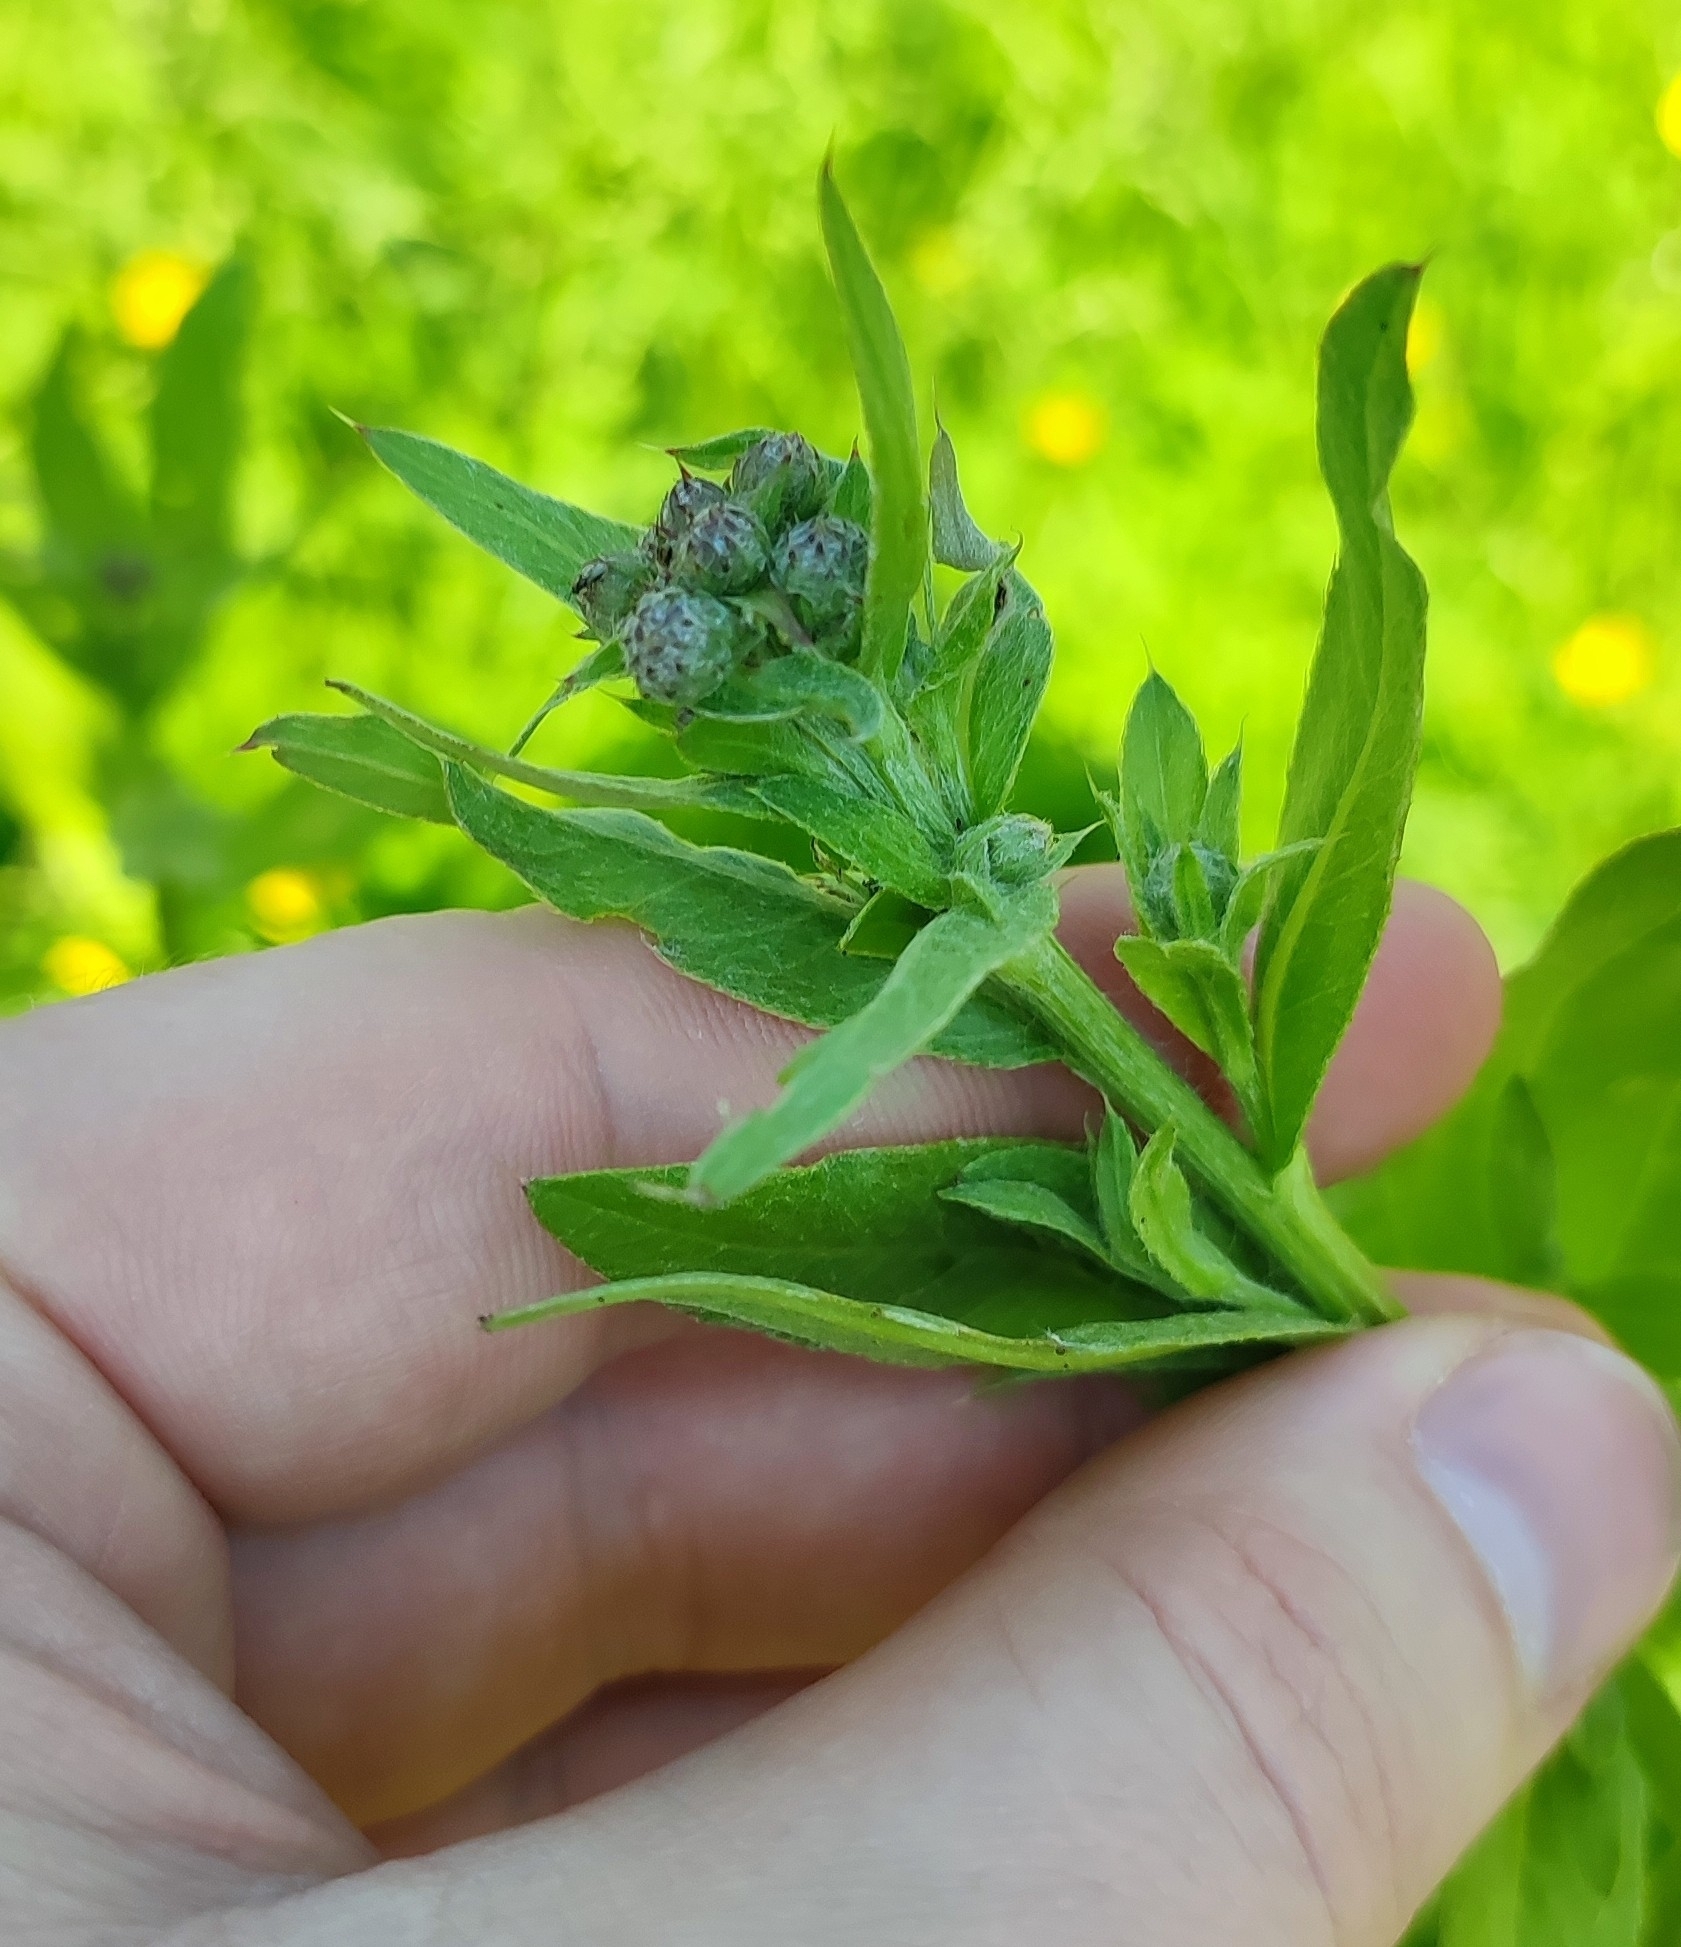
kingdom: Plantae
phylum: Tracheophyta
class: Magnoliopsida
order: Asterales
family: Asteraceae
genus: Cirsium
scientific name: Cirsium arvense
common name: Creeping thistle
